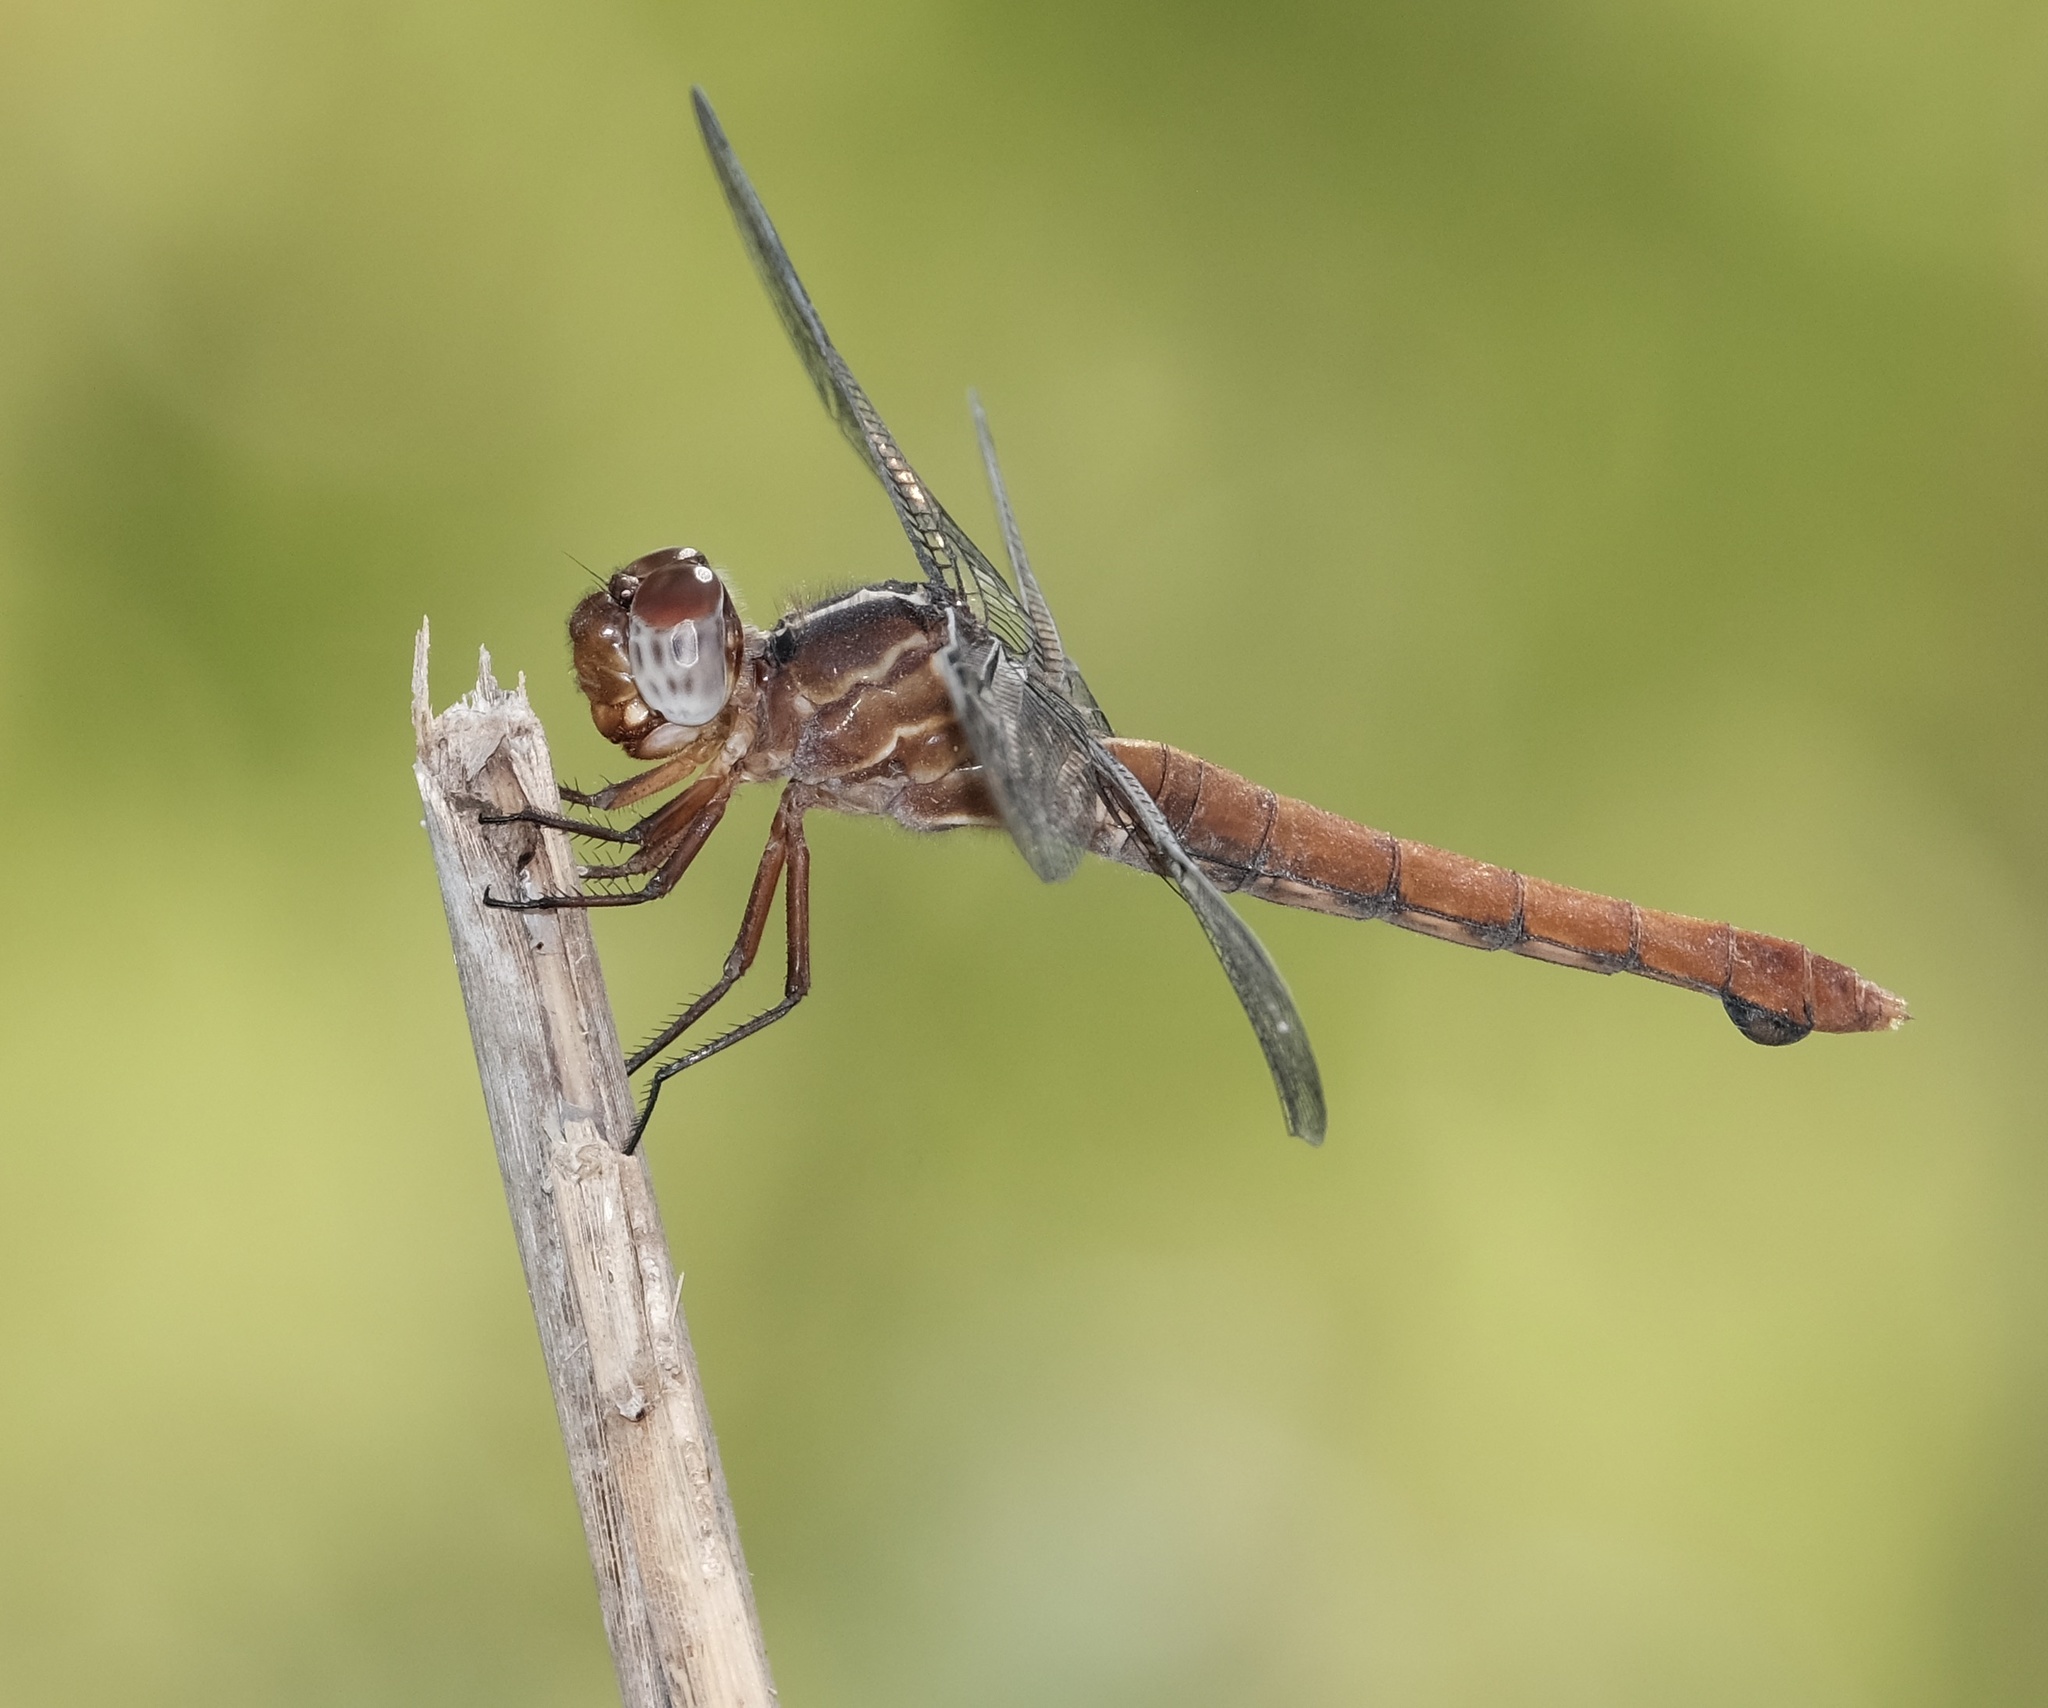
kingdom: Animalia
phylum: Arthropoda
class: Insecta
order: Odonata
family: Libellulidae
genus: Orthemis
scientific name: Orthemis discolor
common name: Carmine skimmer
